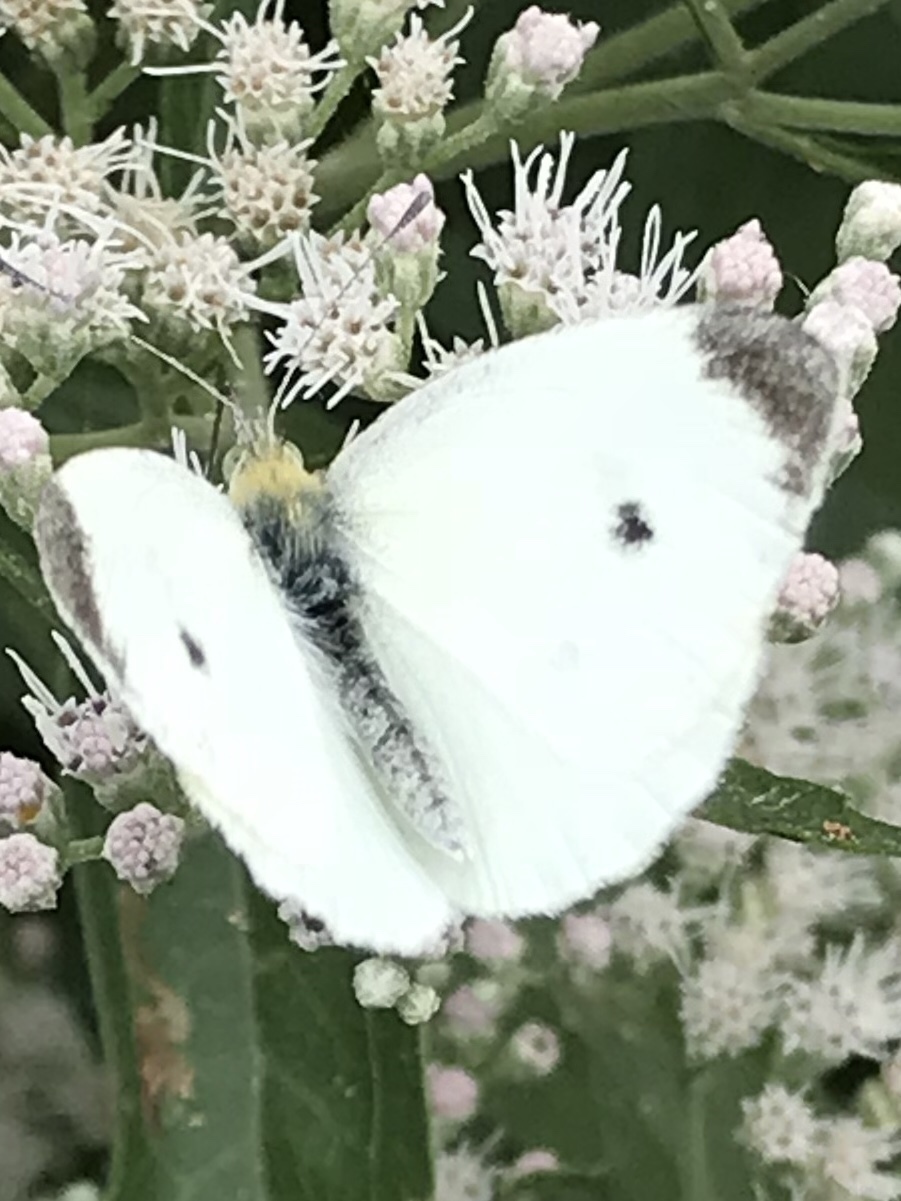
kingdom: Animalia
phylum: Arthropoda
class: Insecta
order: Lepidoptera
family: Pieridae
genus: Pieris
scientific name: Pieris rapae
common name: Small white
